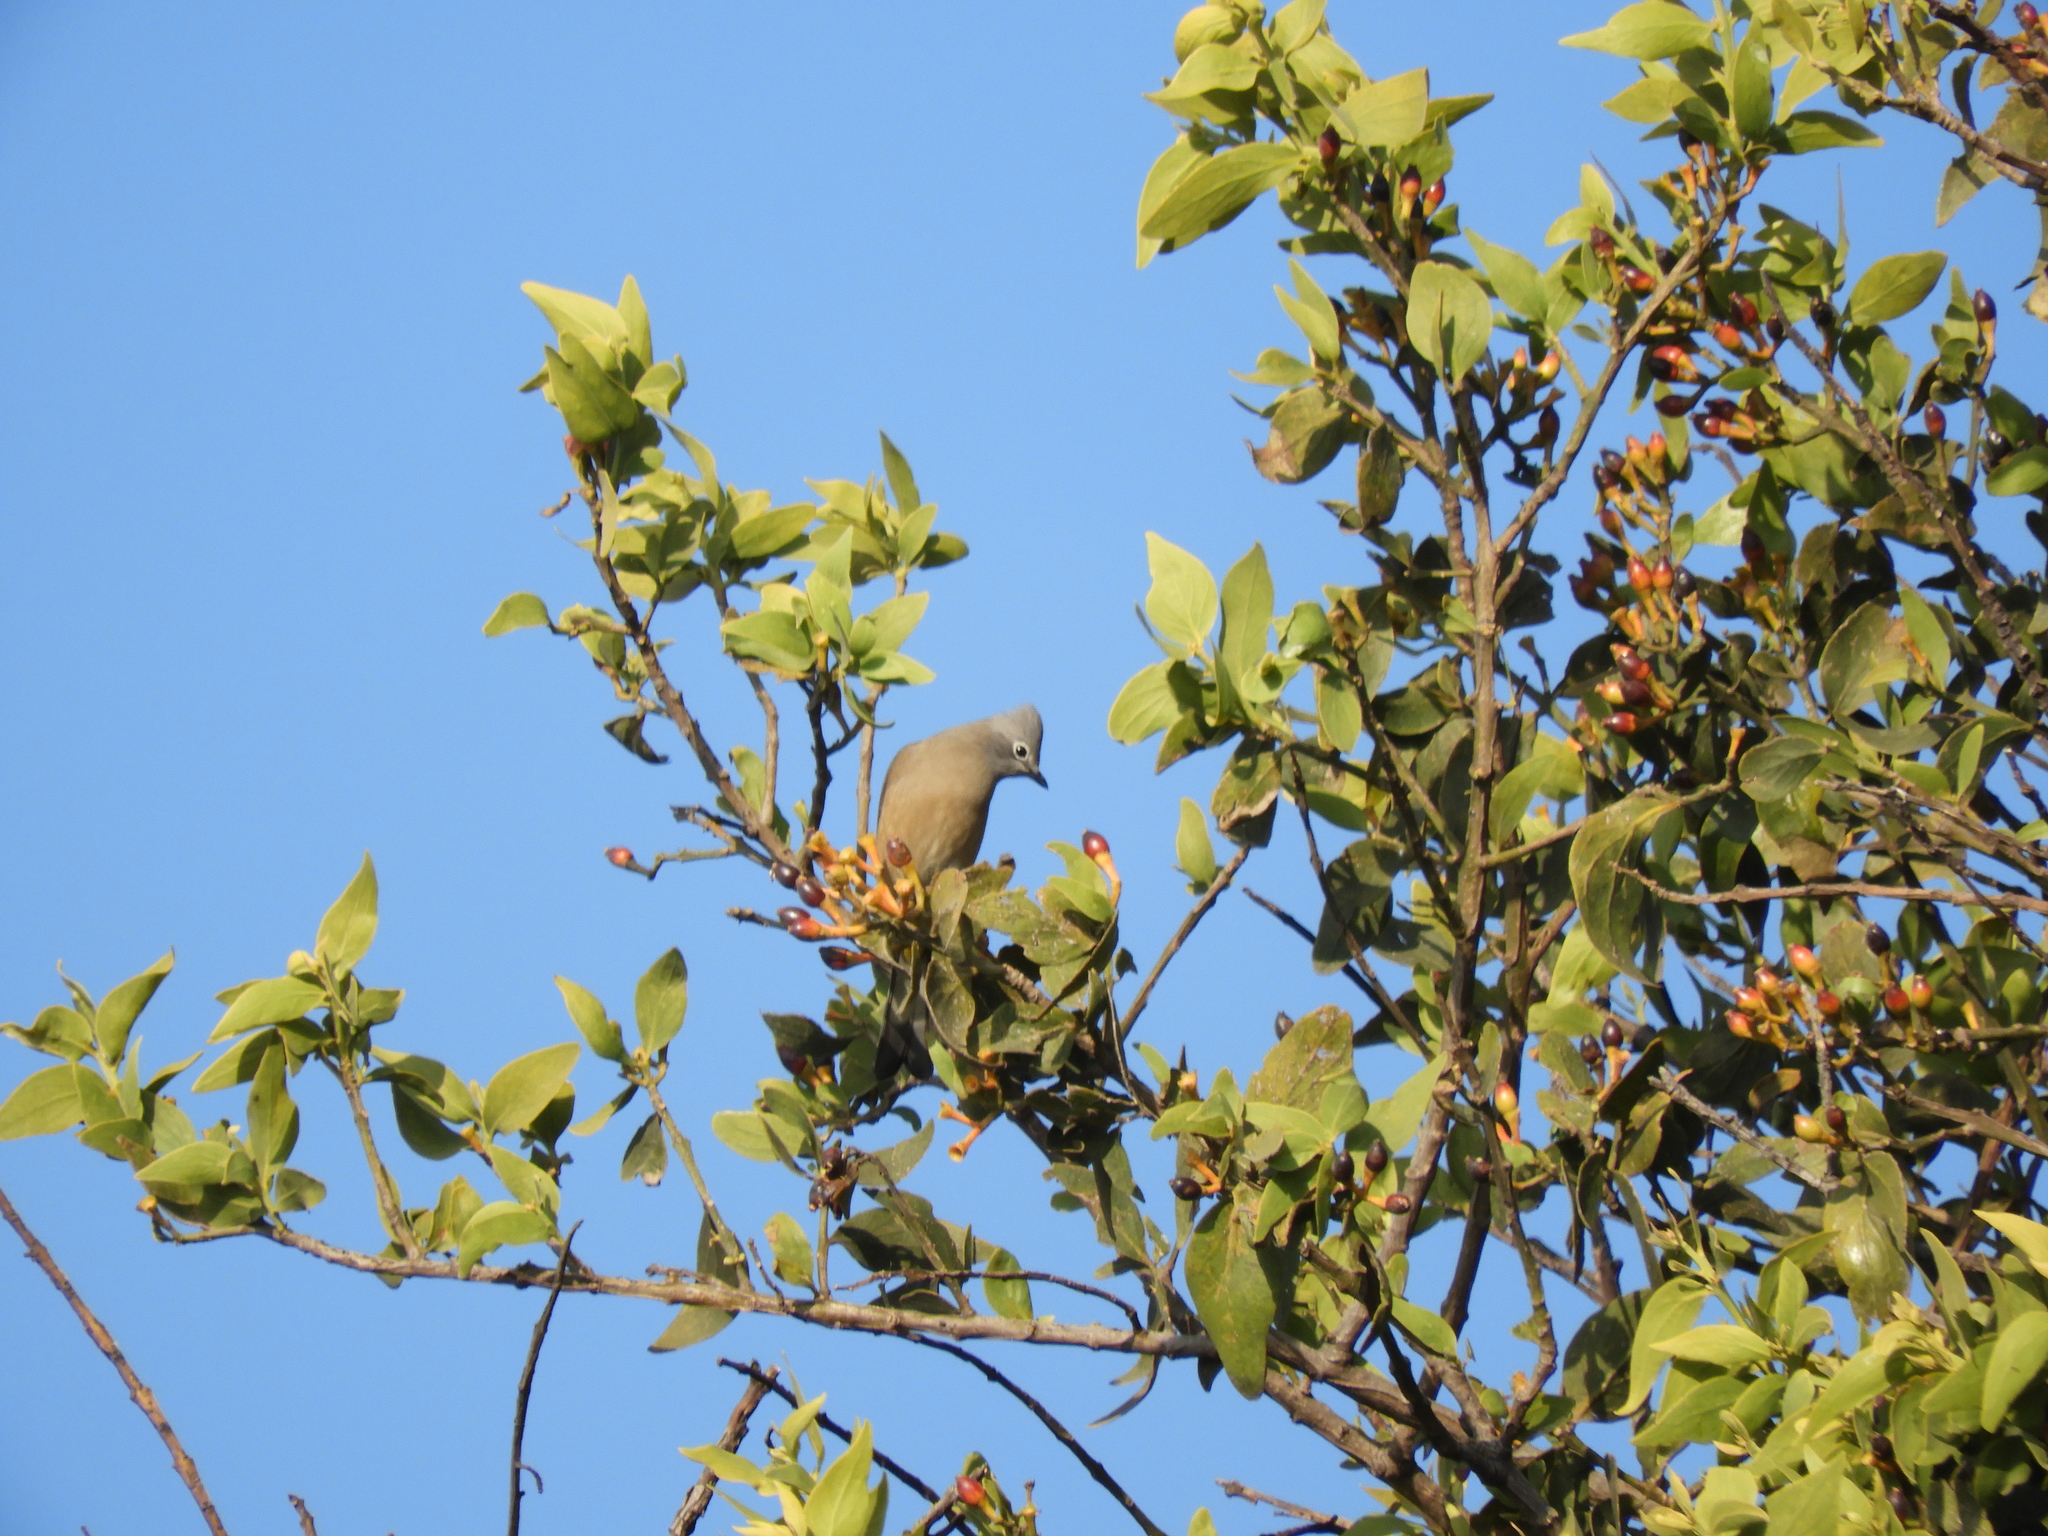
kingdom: Animalia
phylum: Chordata
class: Aves
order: Passeriformes
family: Ptilogonatidae
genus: Ptilogonys
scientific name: Ptilogonys cinereus
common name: Gray silky-flycatcher
